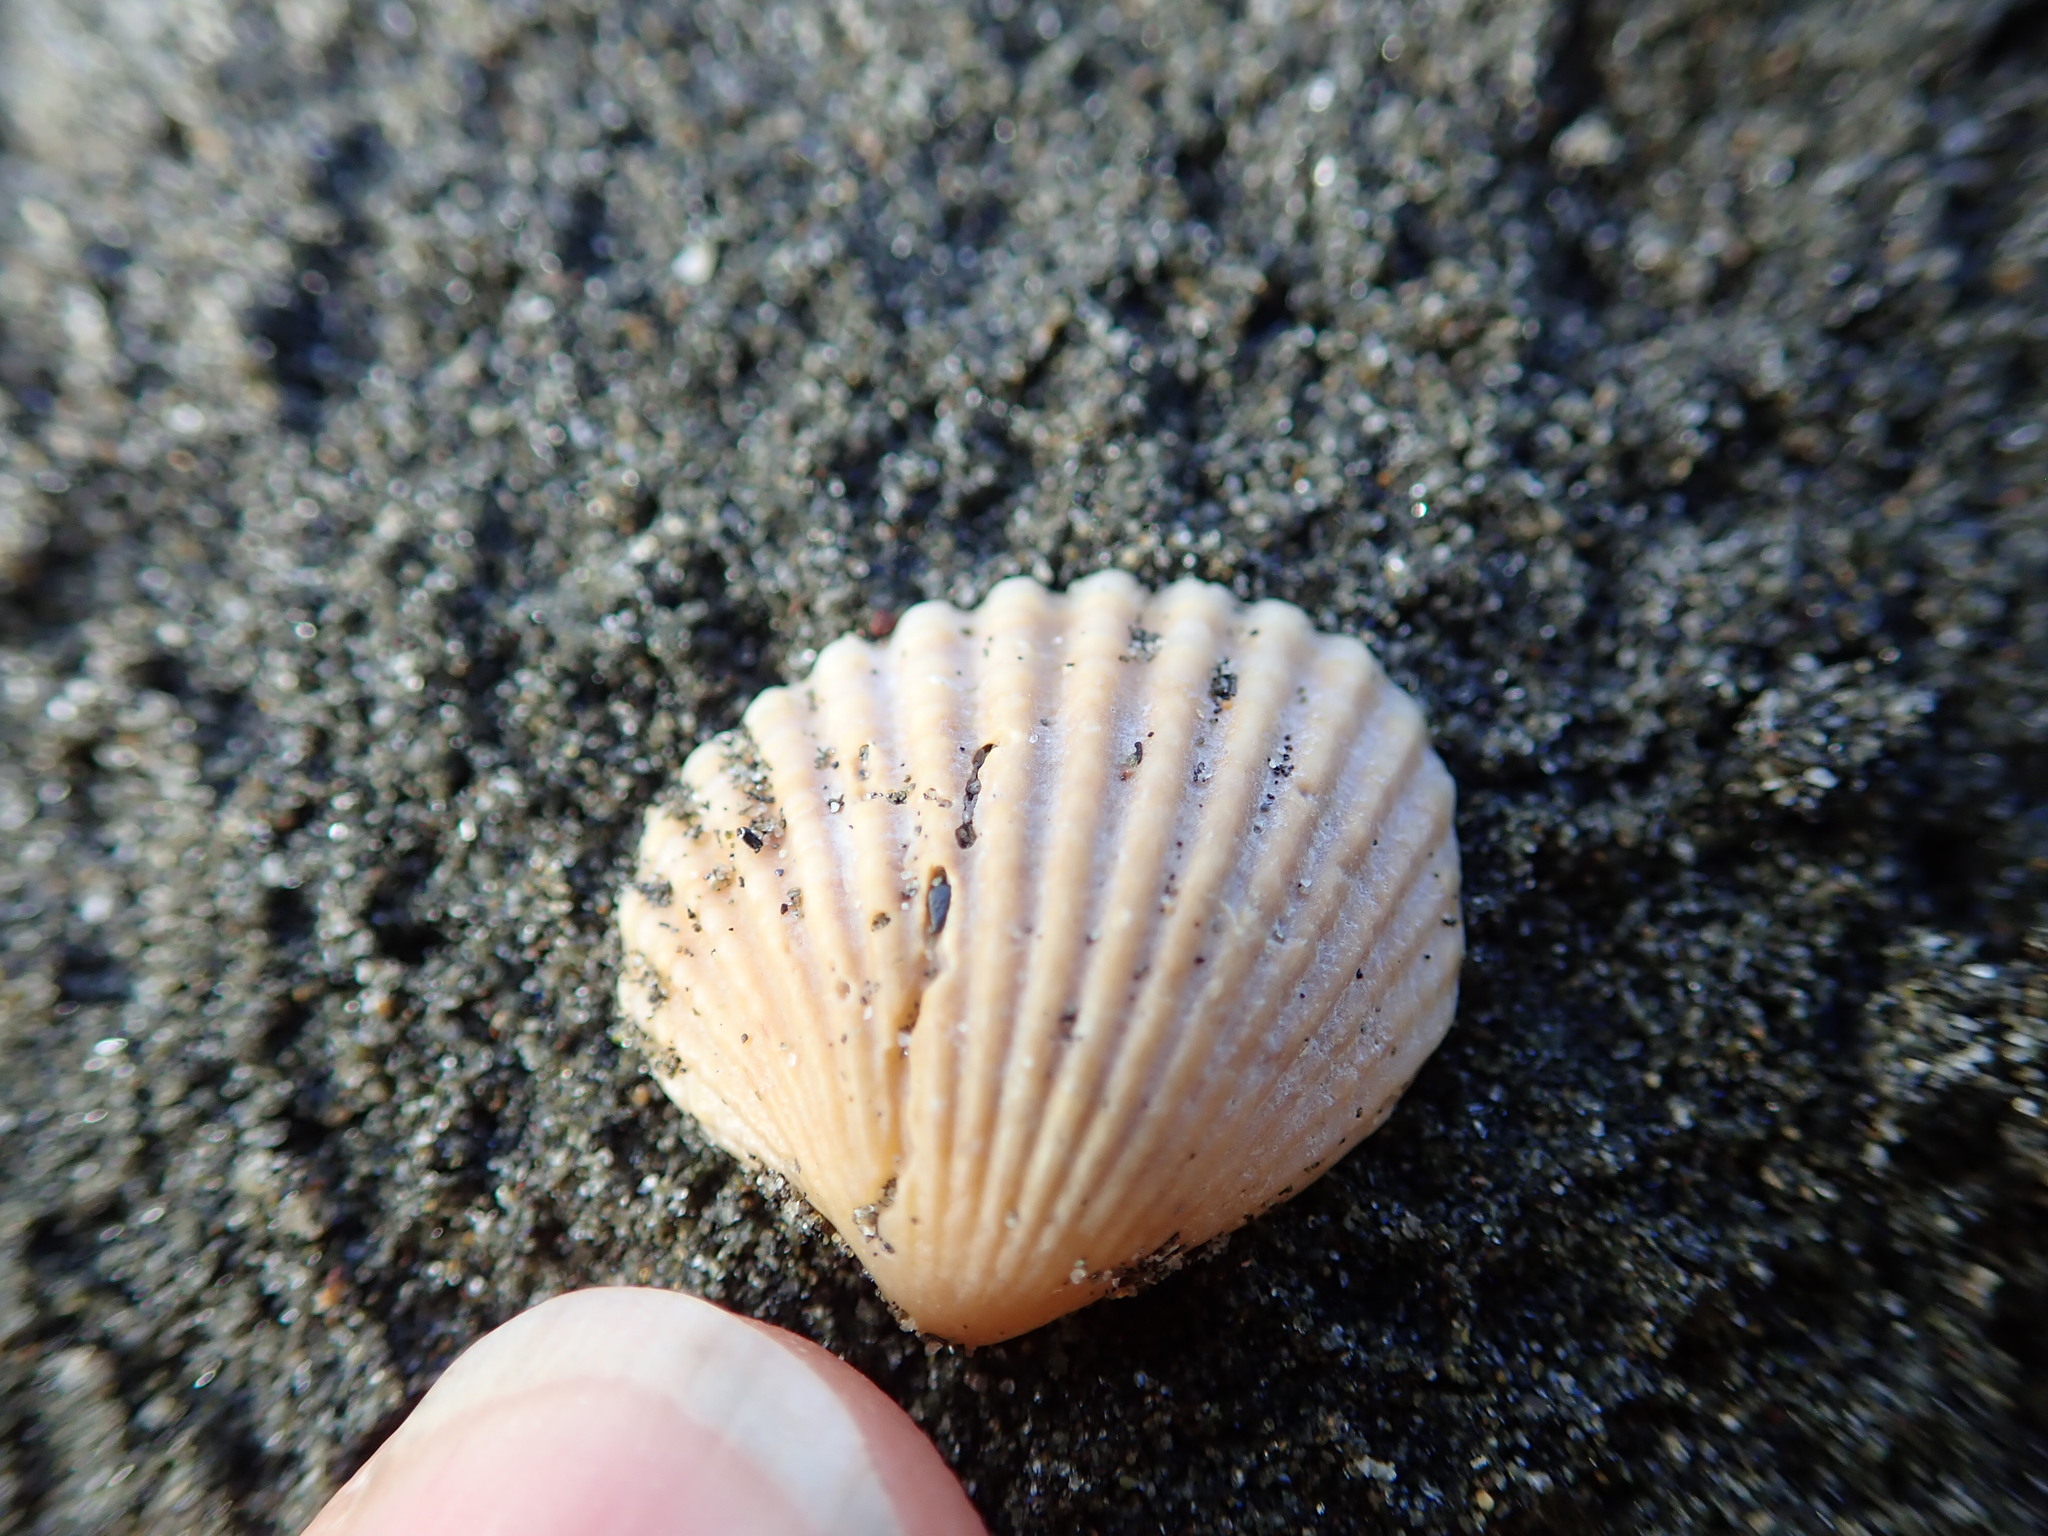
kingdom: Animalia
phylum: Mollusca
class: Bivalvia
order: Carditida
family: Carditidae
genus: Purpurocardia
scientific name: Purpurocardia purpurata
